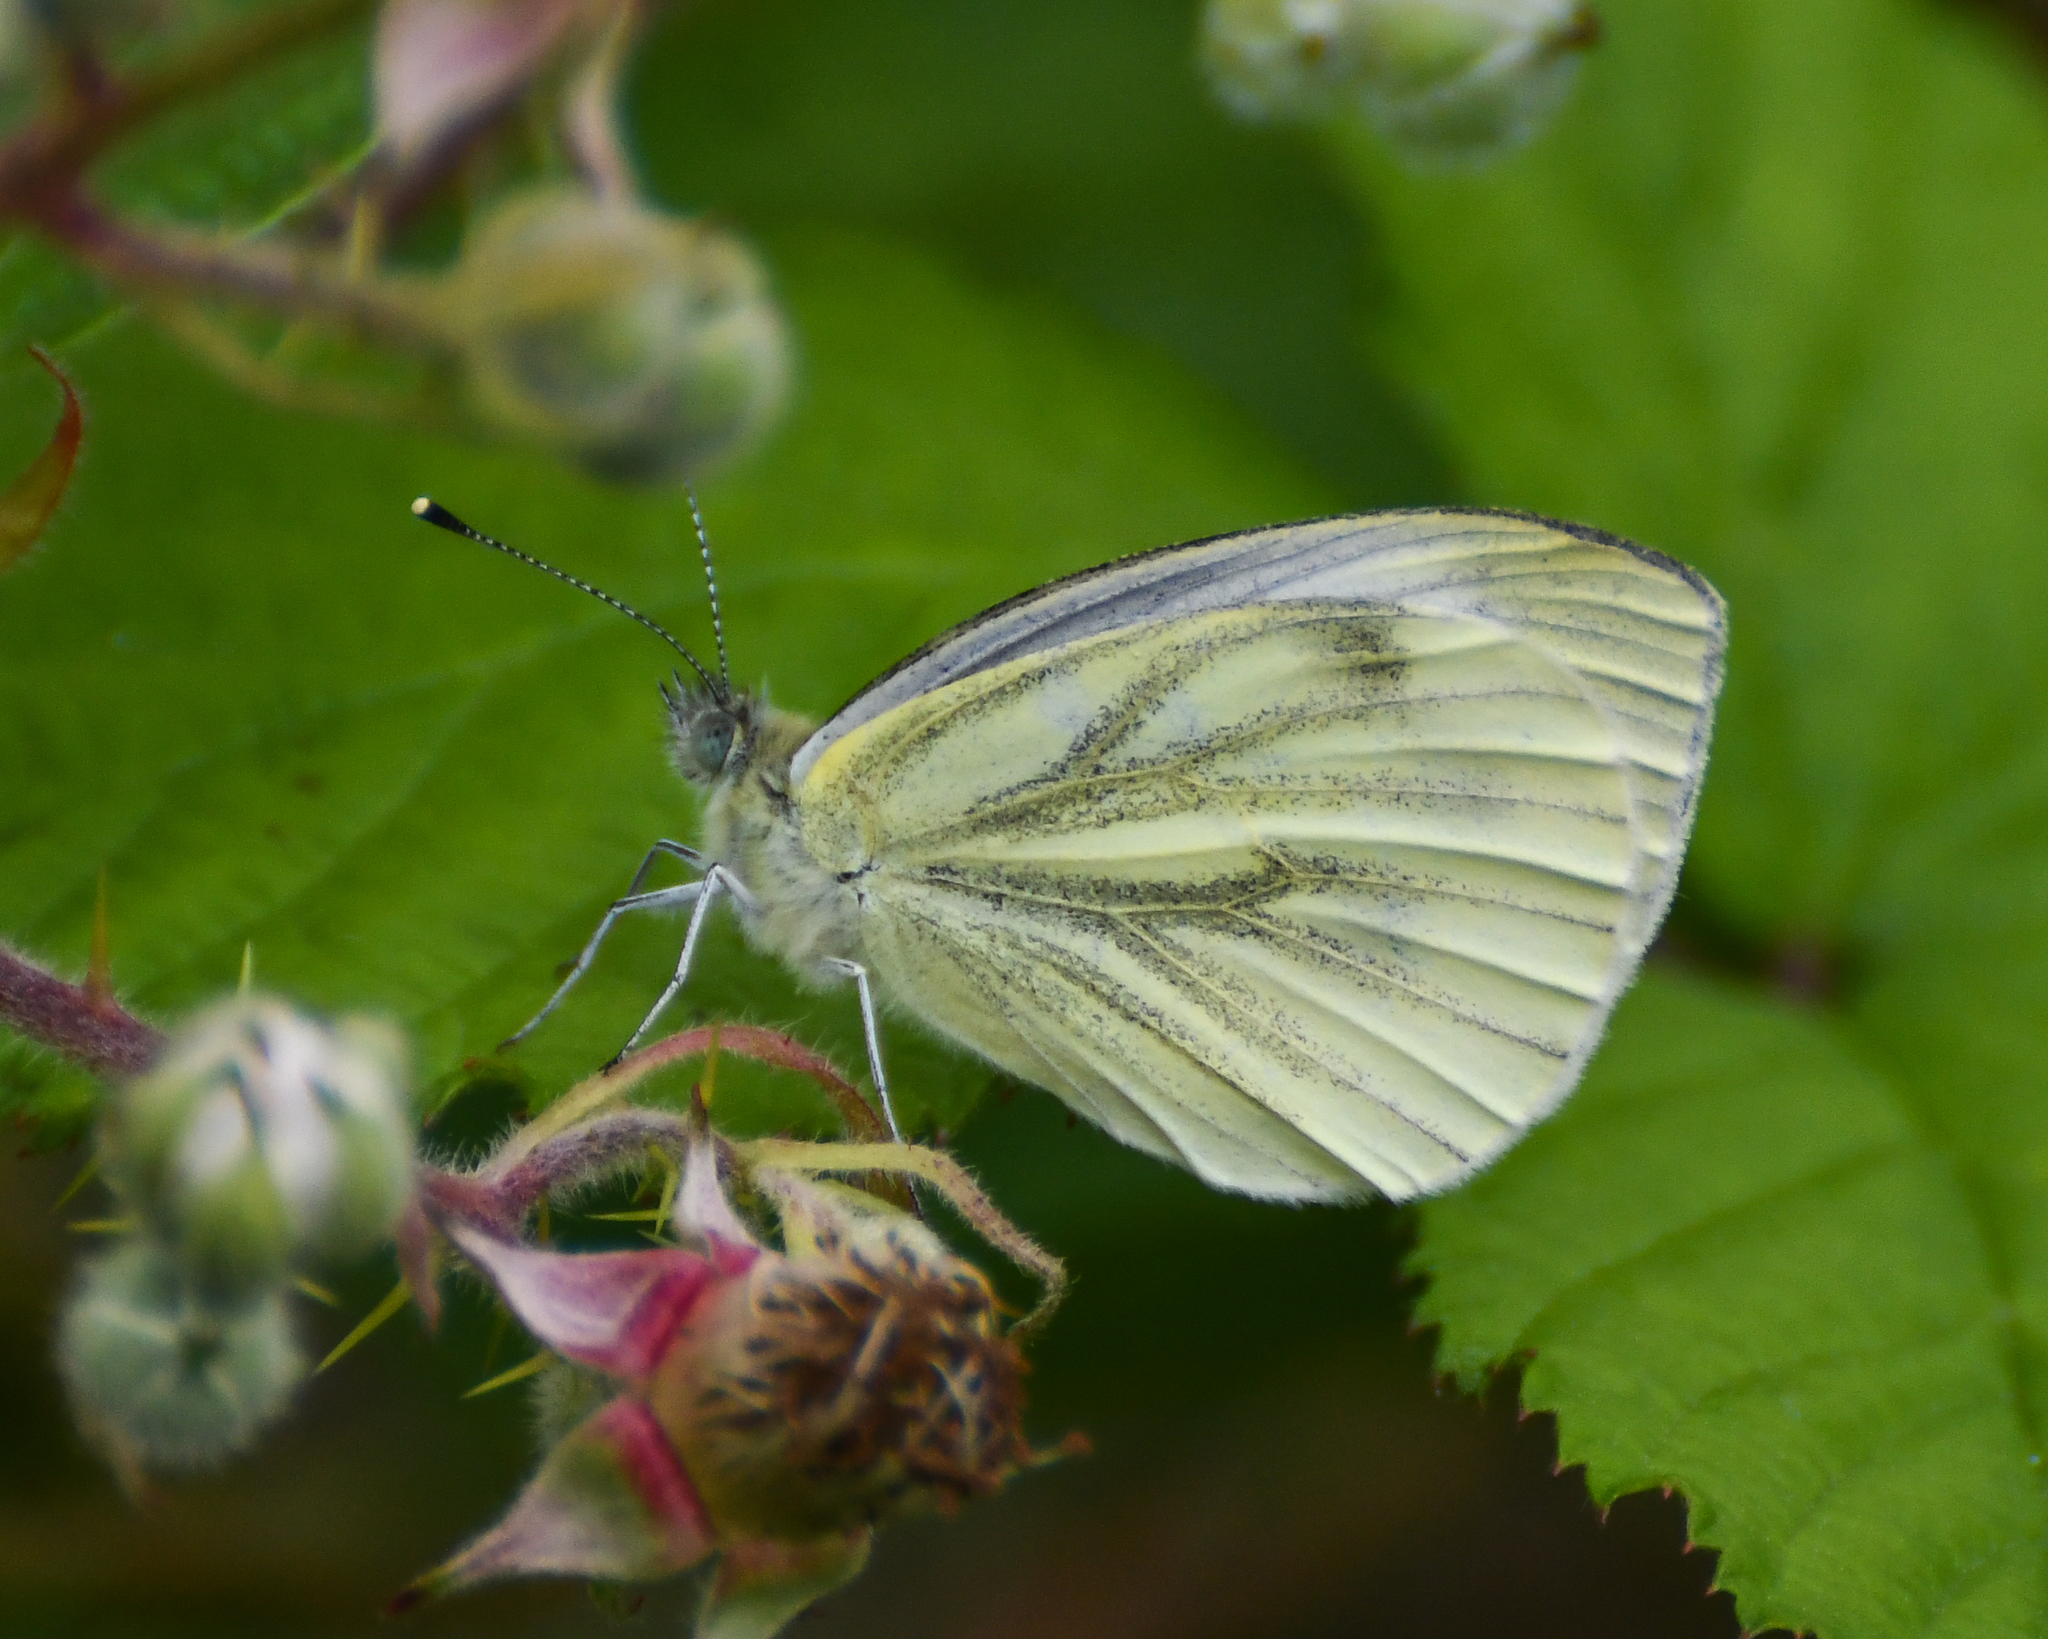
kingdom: Animalia
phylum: Arthropoda
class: Insecta
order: Lepidoptera
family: Pieridae
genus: Pieris
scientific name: Pieris napi
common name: Green-veined white
